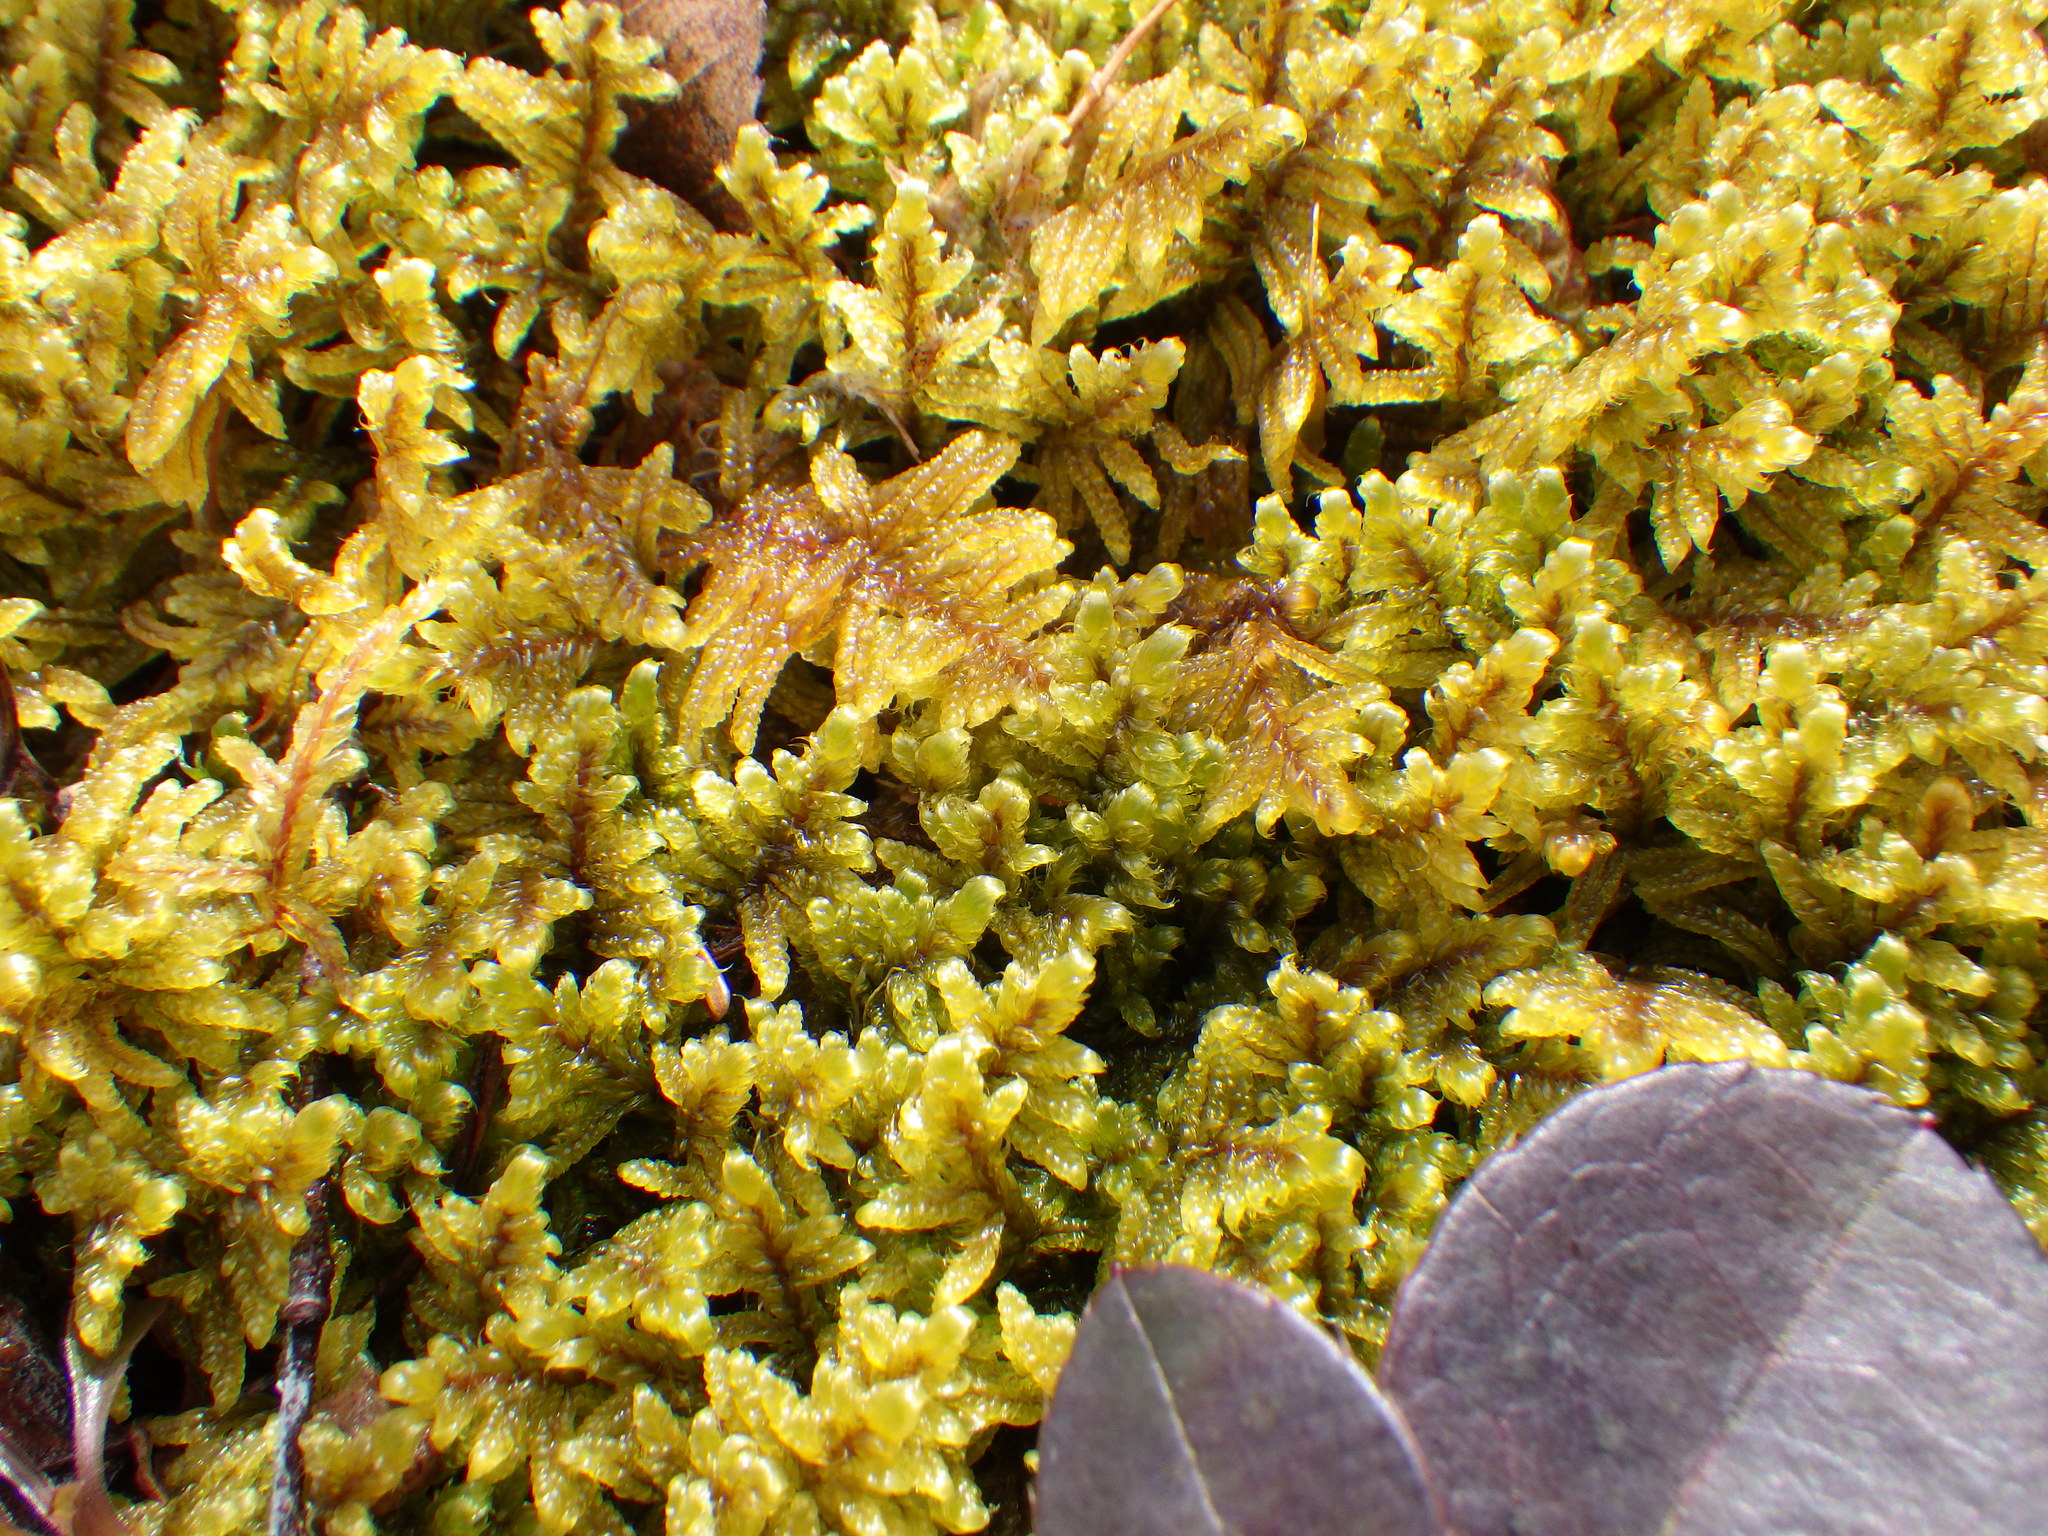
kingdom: Plantae
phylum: Bryophyta
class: Bryopsida
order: Hypnales
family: Callicladiaceae
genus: Callicladium
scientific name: Callicladium imponens
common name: Brocade moss
